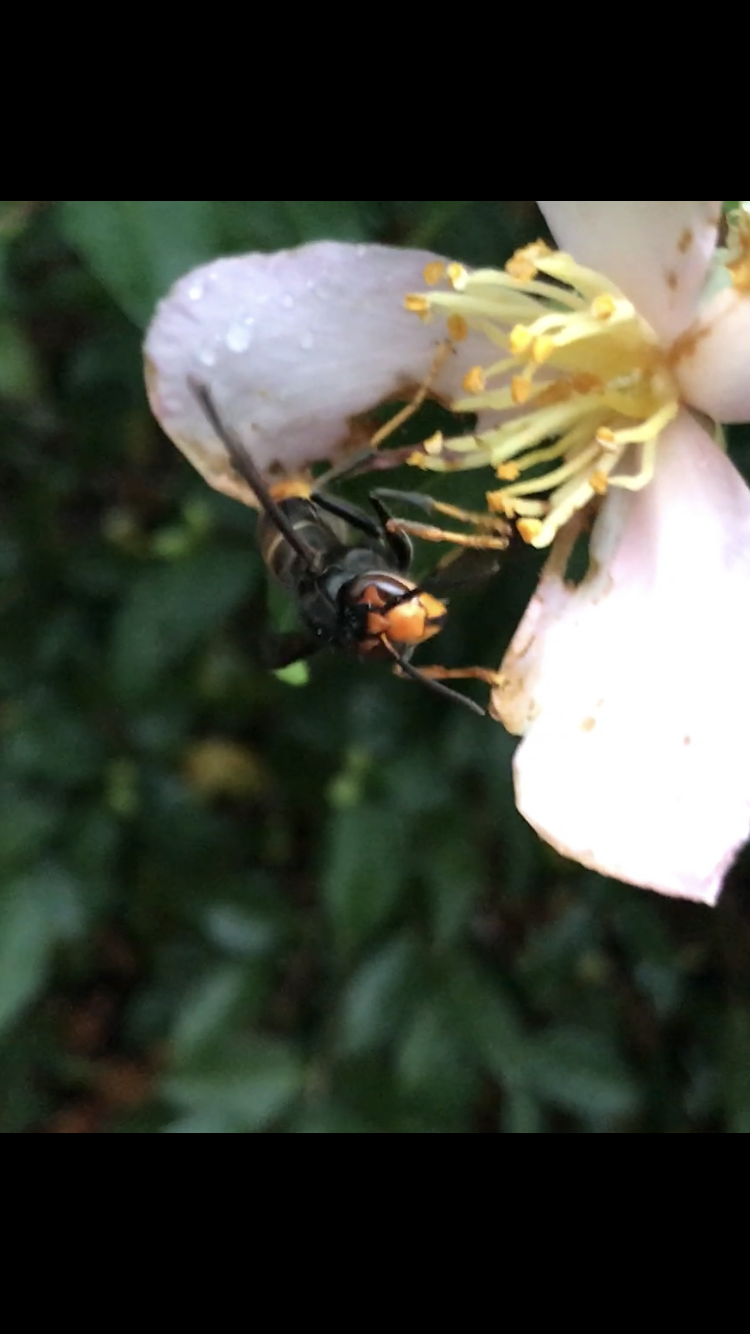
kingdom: Animalia
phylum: Arthropoda
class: Insecta
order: Hymenoptera
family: Vespidae
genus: Vespa
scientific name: Vespa velutina
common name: Asian hornet
